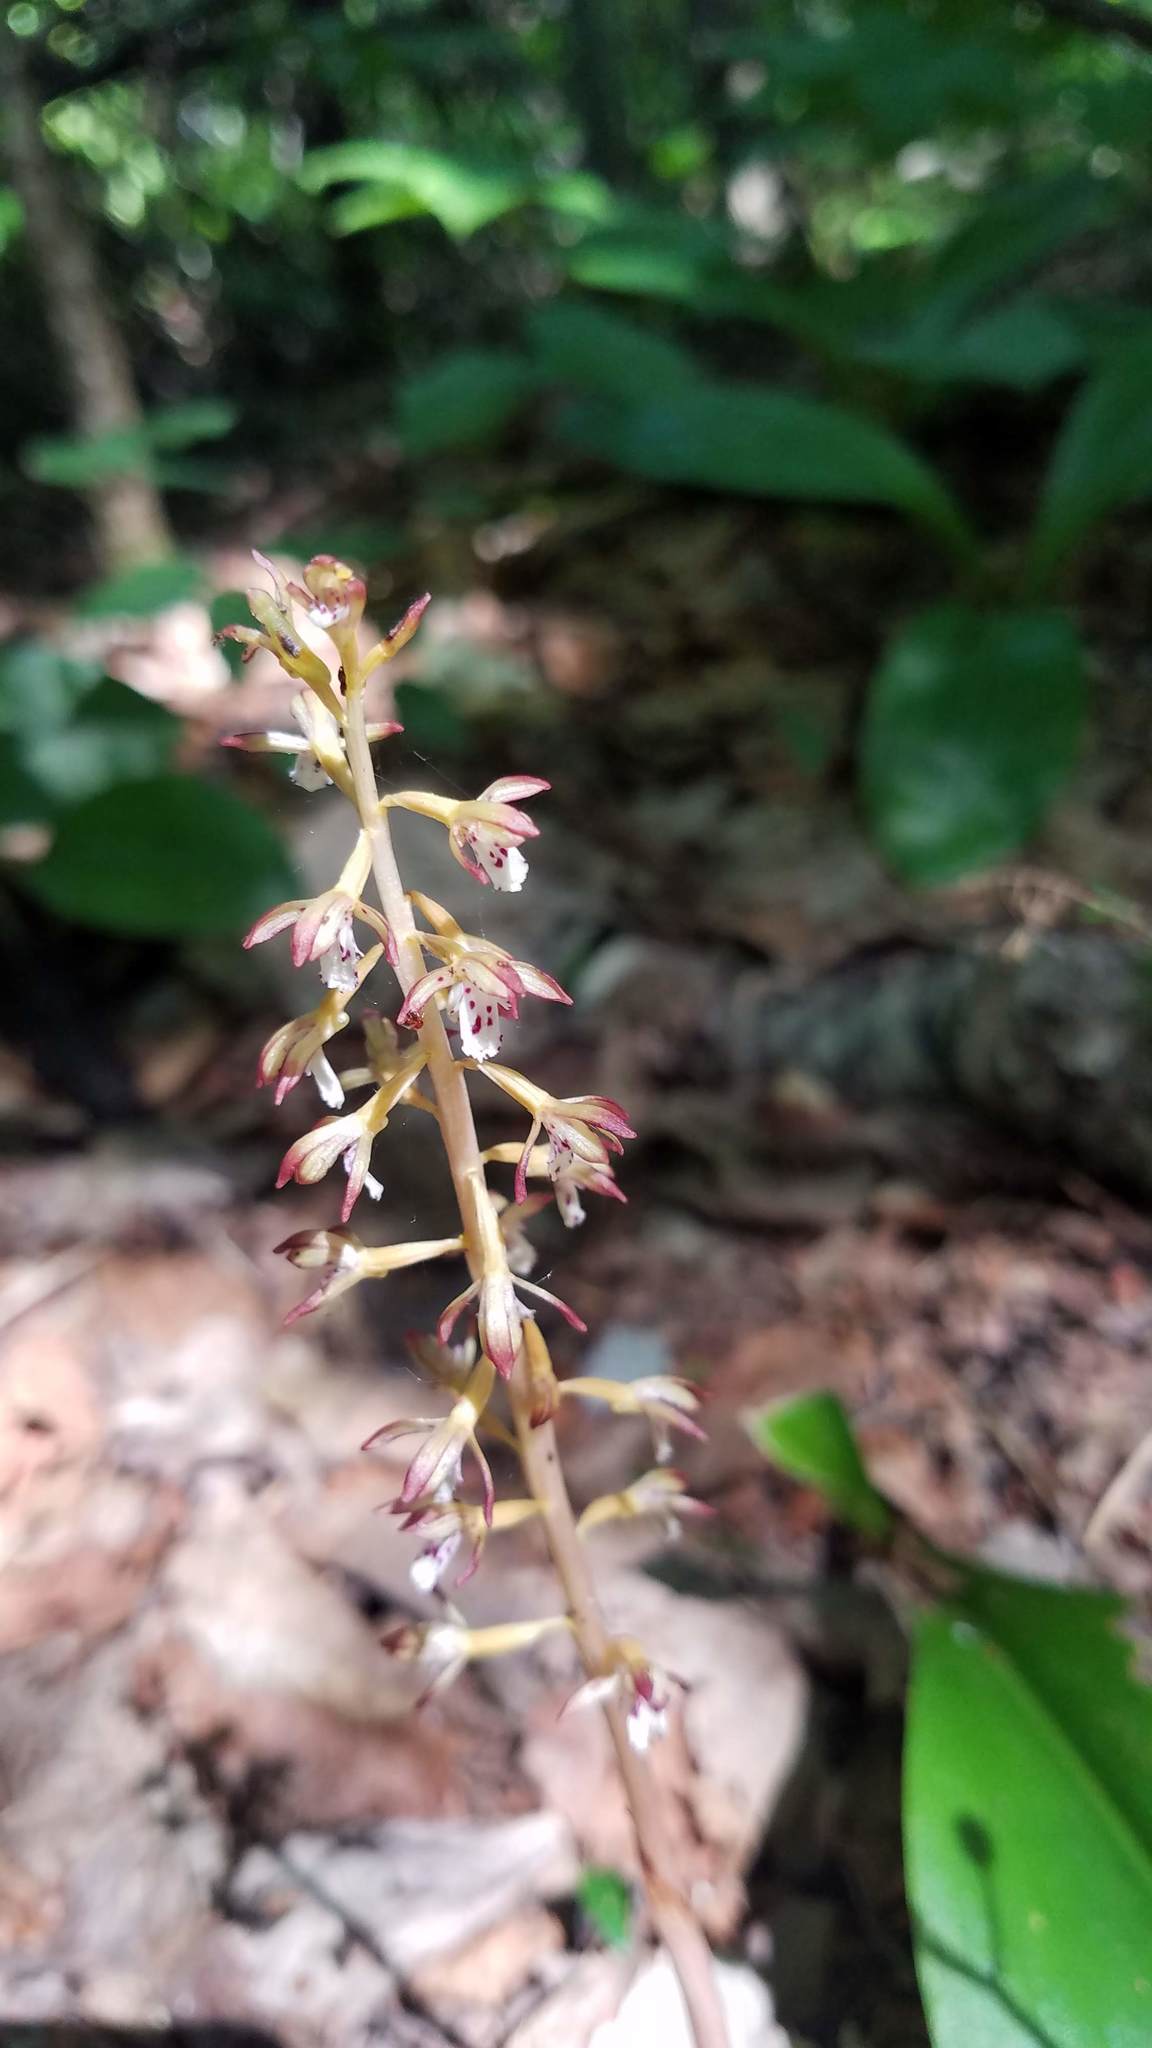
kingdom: Plantae
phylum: Tracheophyta
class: Liliopsida
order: Asparagales
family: Orchidaceae
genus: Corallorhiza
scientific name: Corallorhiza maculata
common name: Spotted coralroot
